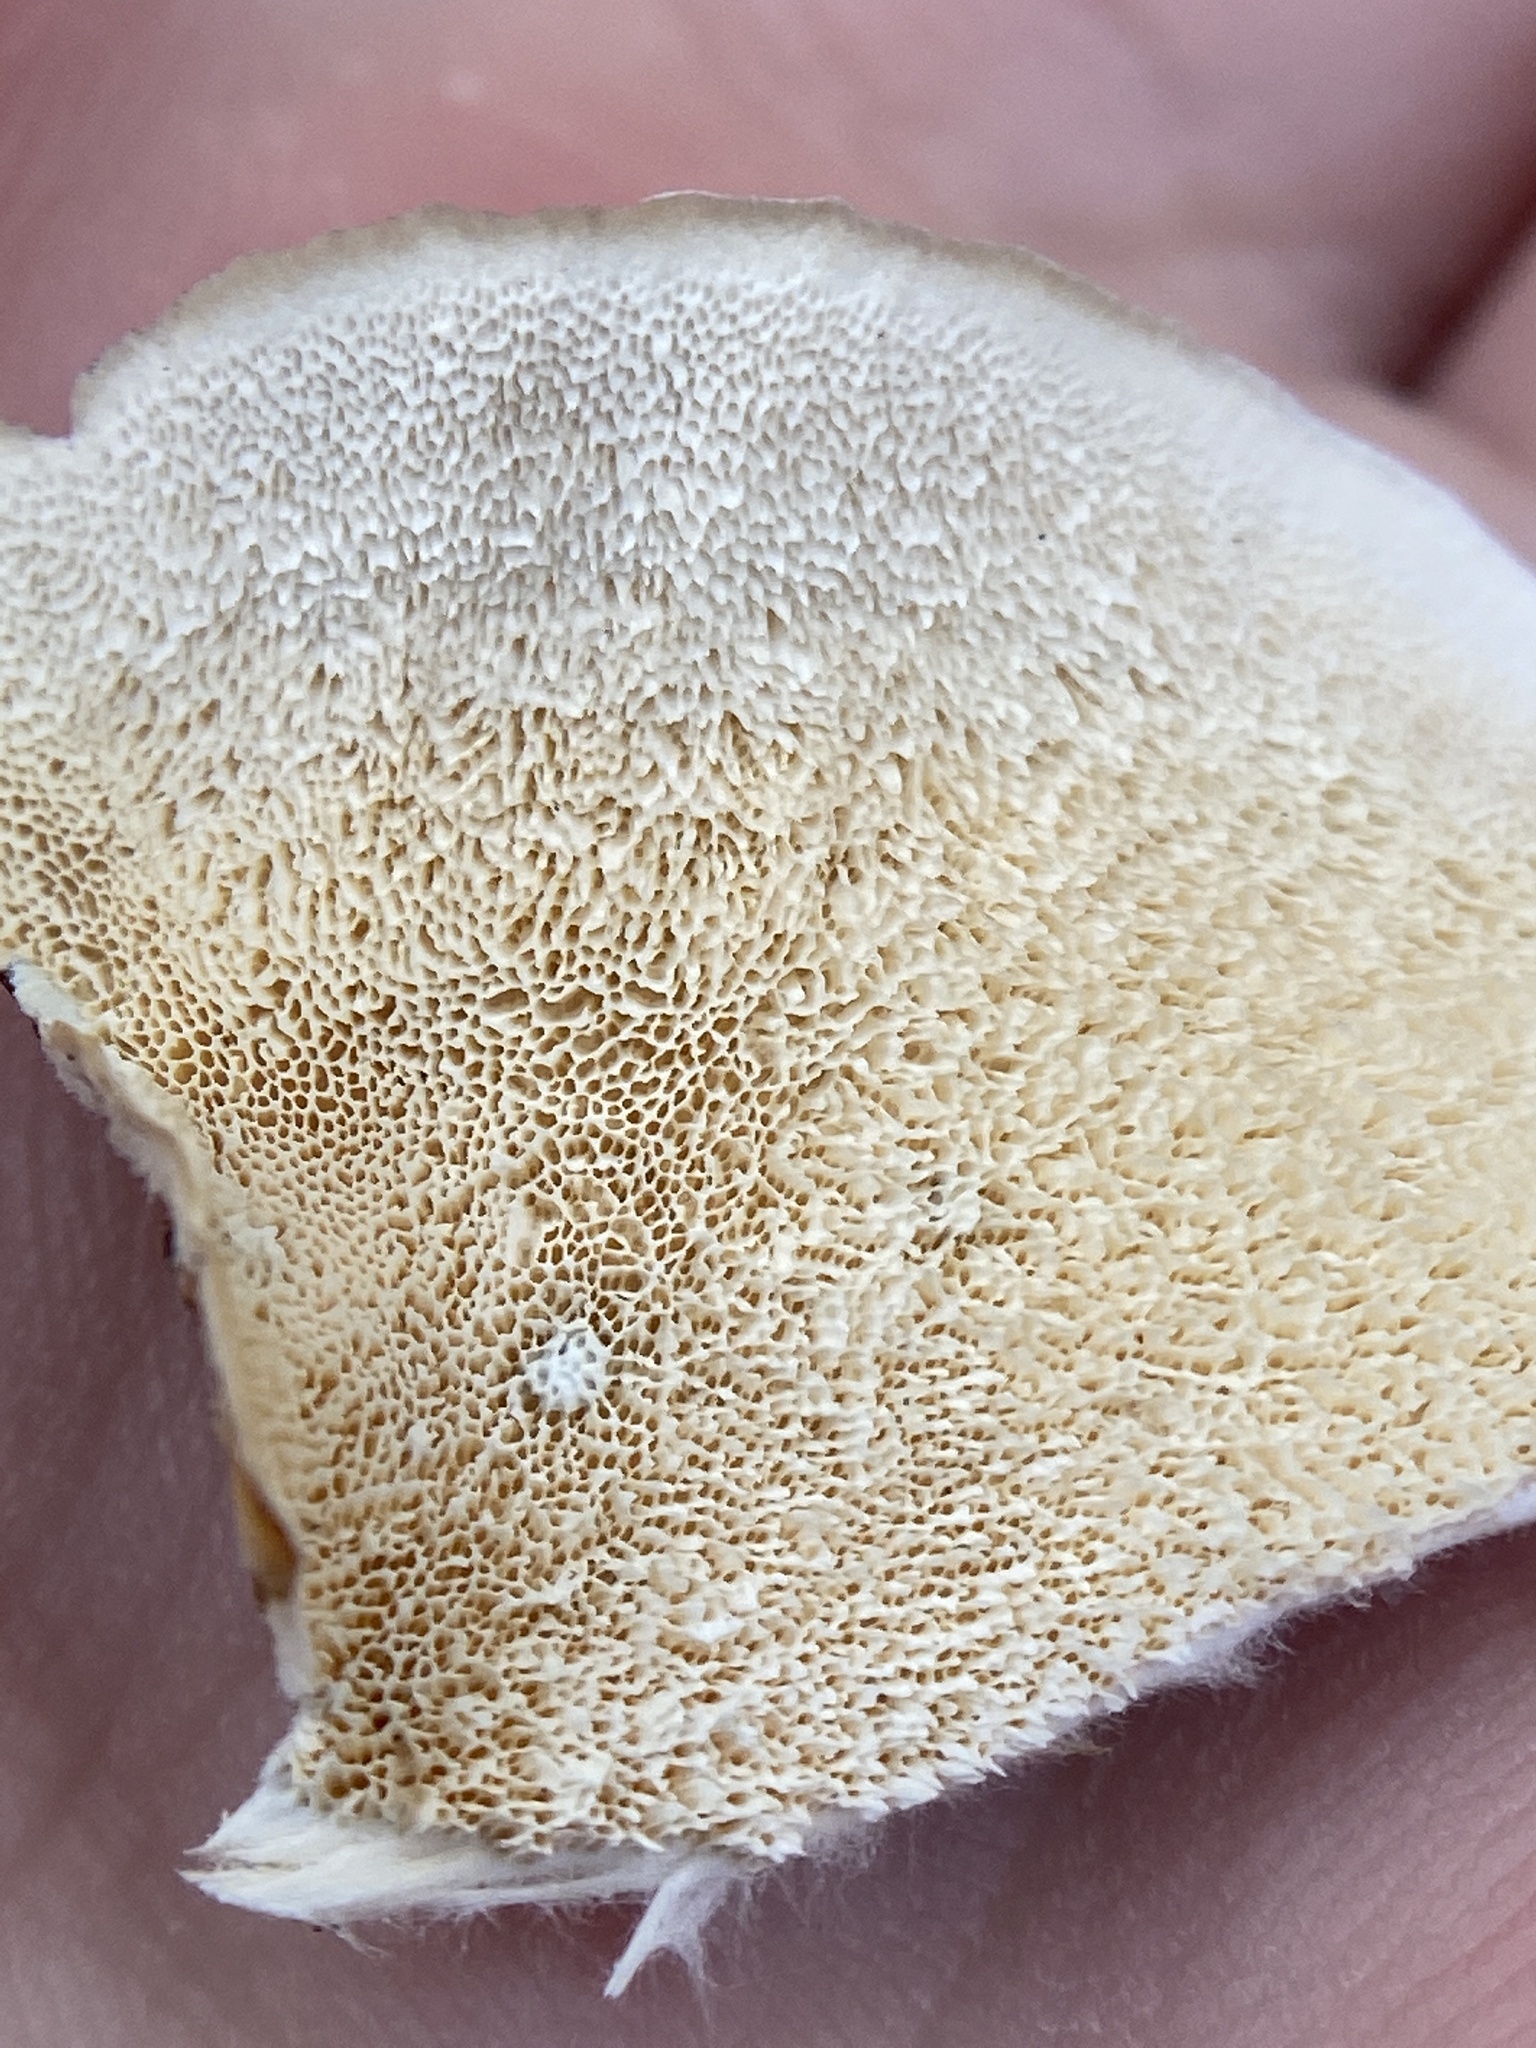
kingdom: Fungi
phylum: Basidiomycota
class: Agaricomycetes
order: Polyporales
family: Polyporaceae
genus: Trametes
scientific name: Trametes versicolor
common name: Turkeytail
